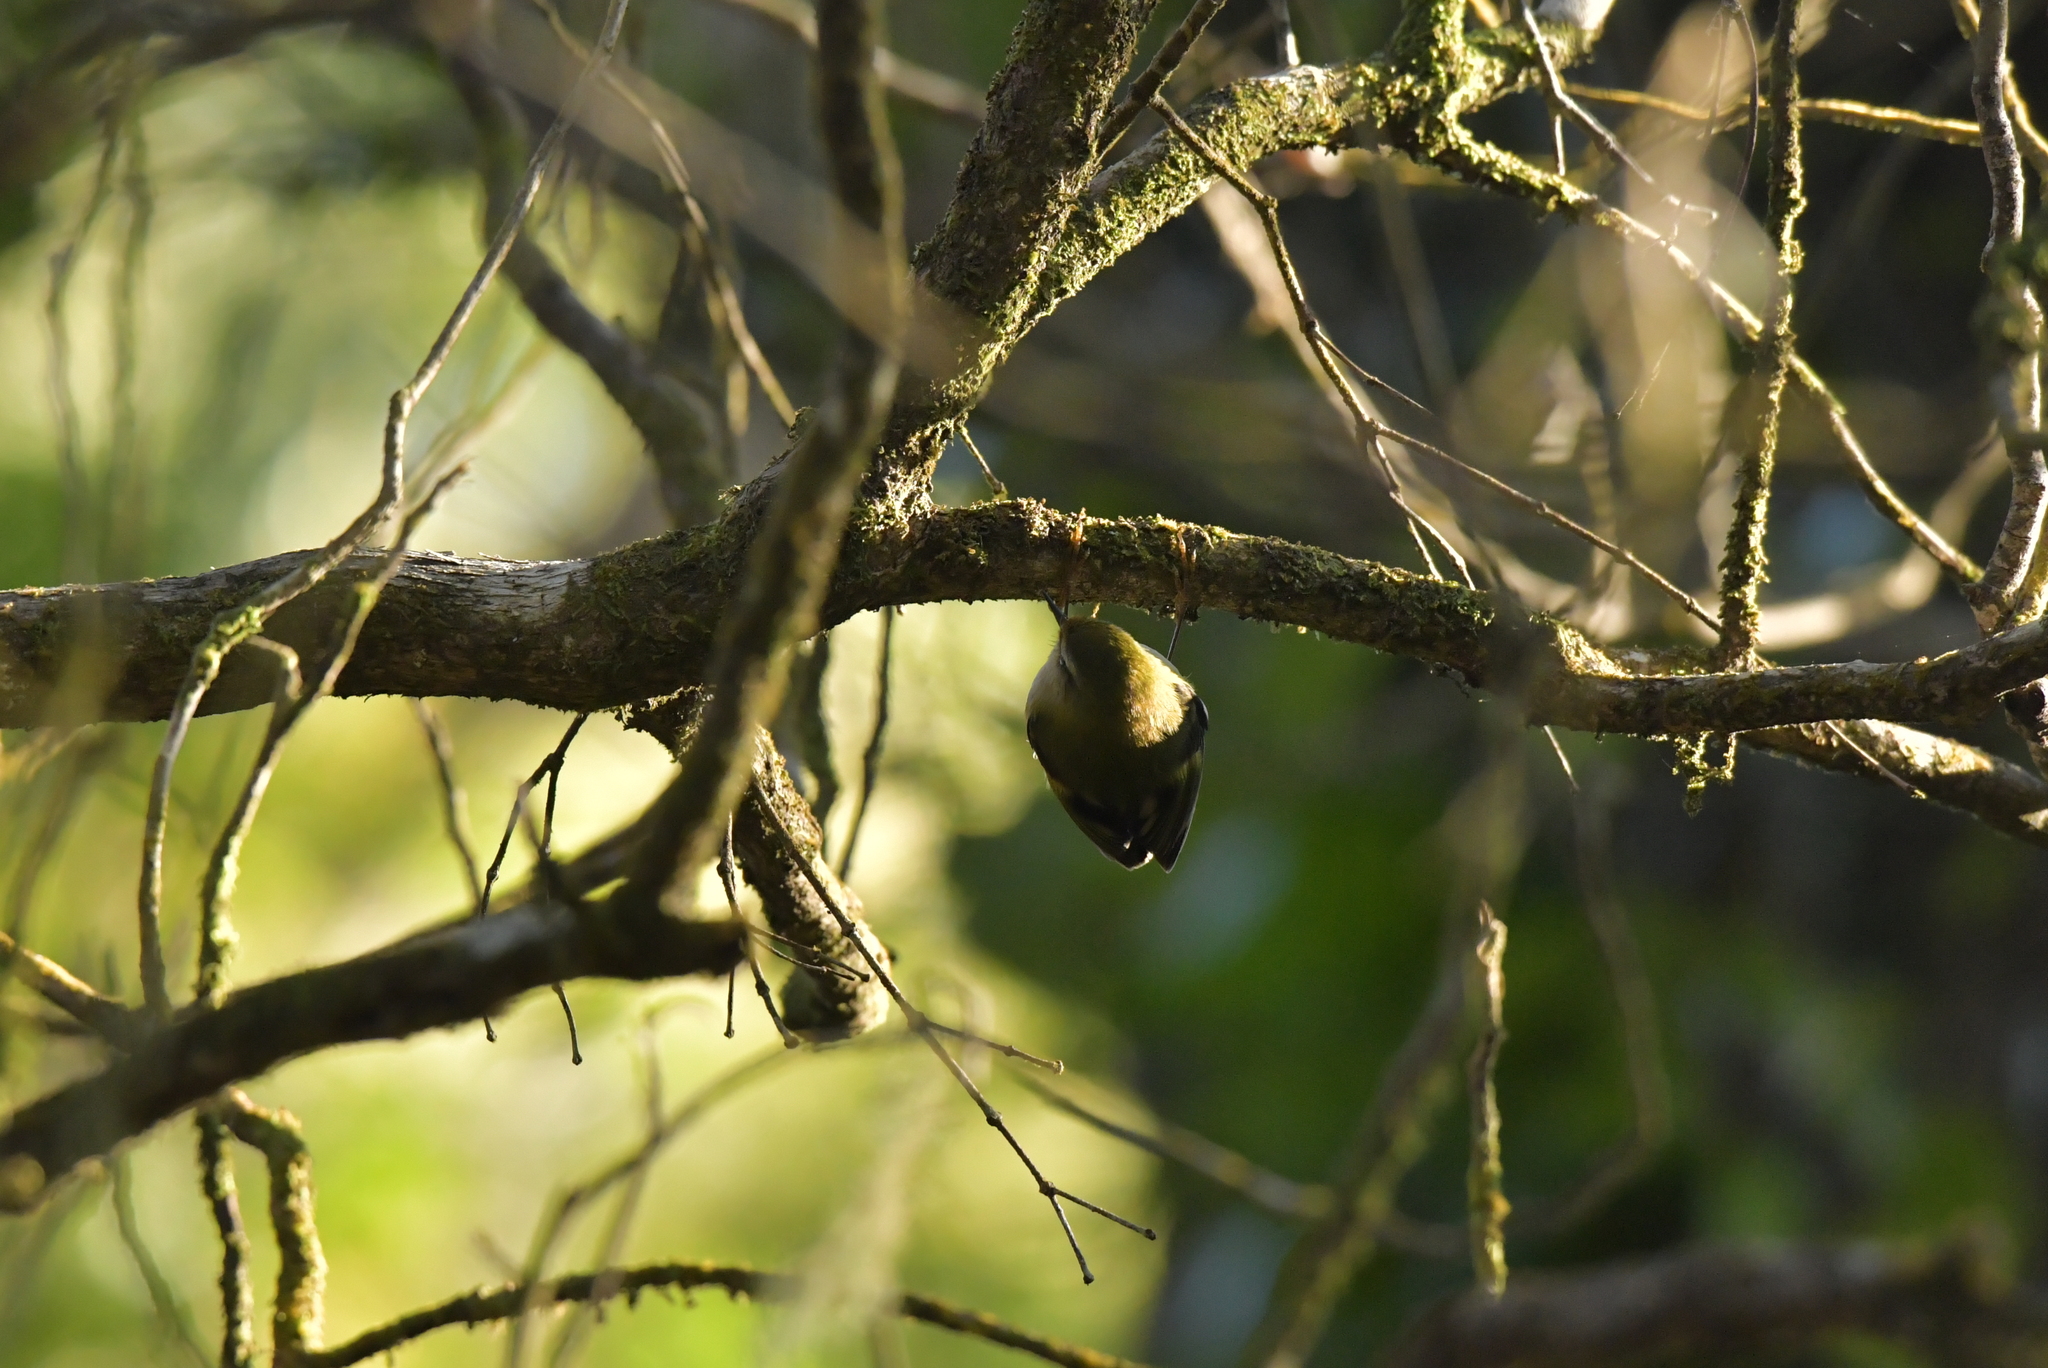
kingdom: Animalia
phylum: Chordata
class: Aves
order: Passeriformes
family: Acanthisittidae
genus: Acanthisitta
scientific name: Acanthisitta chloris
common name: Rifleman
